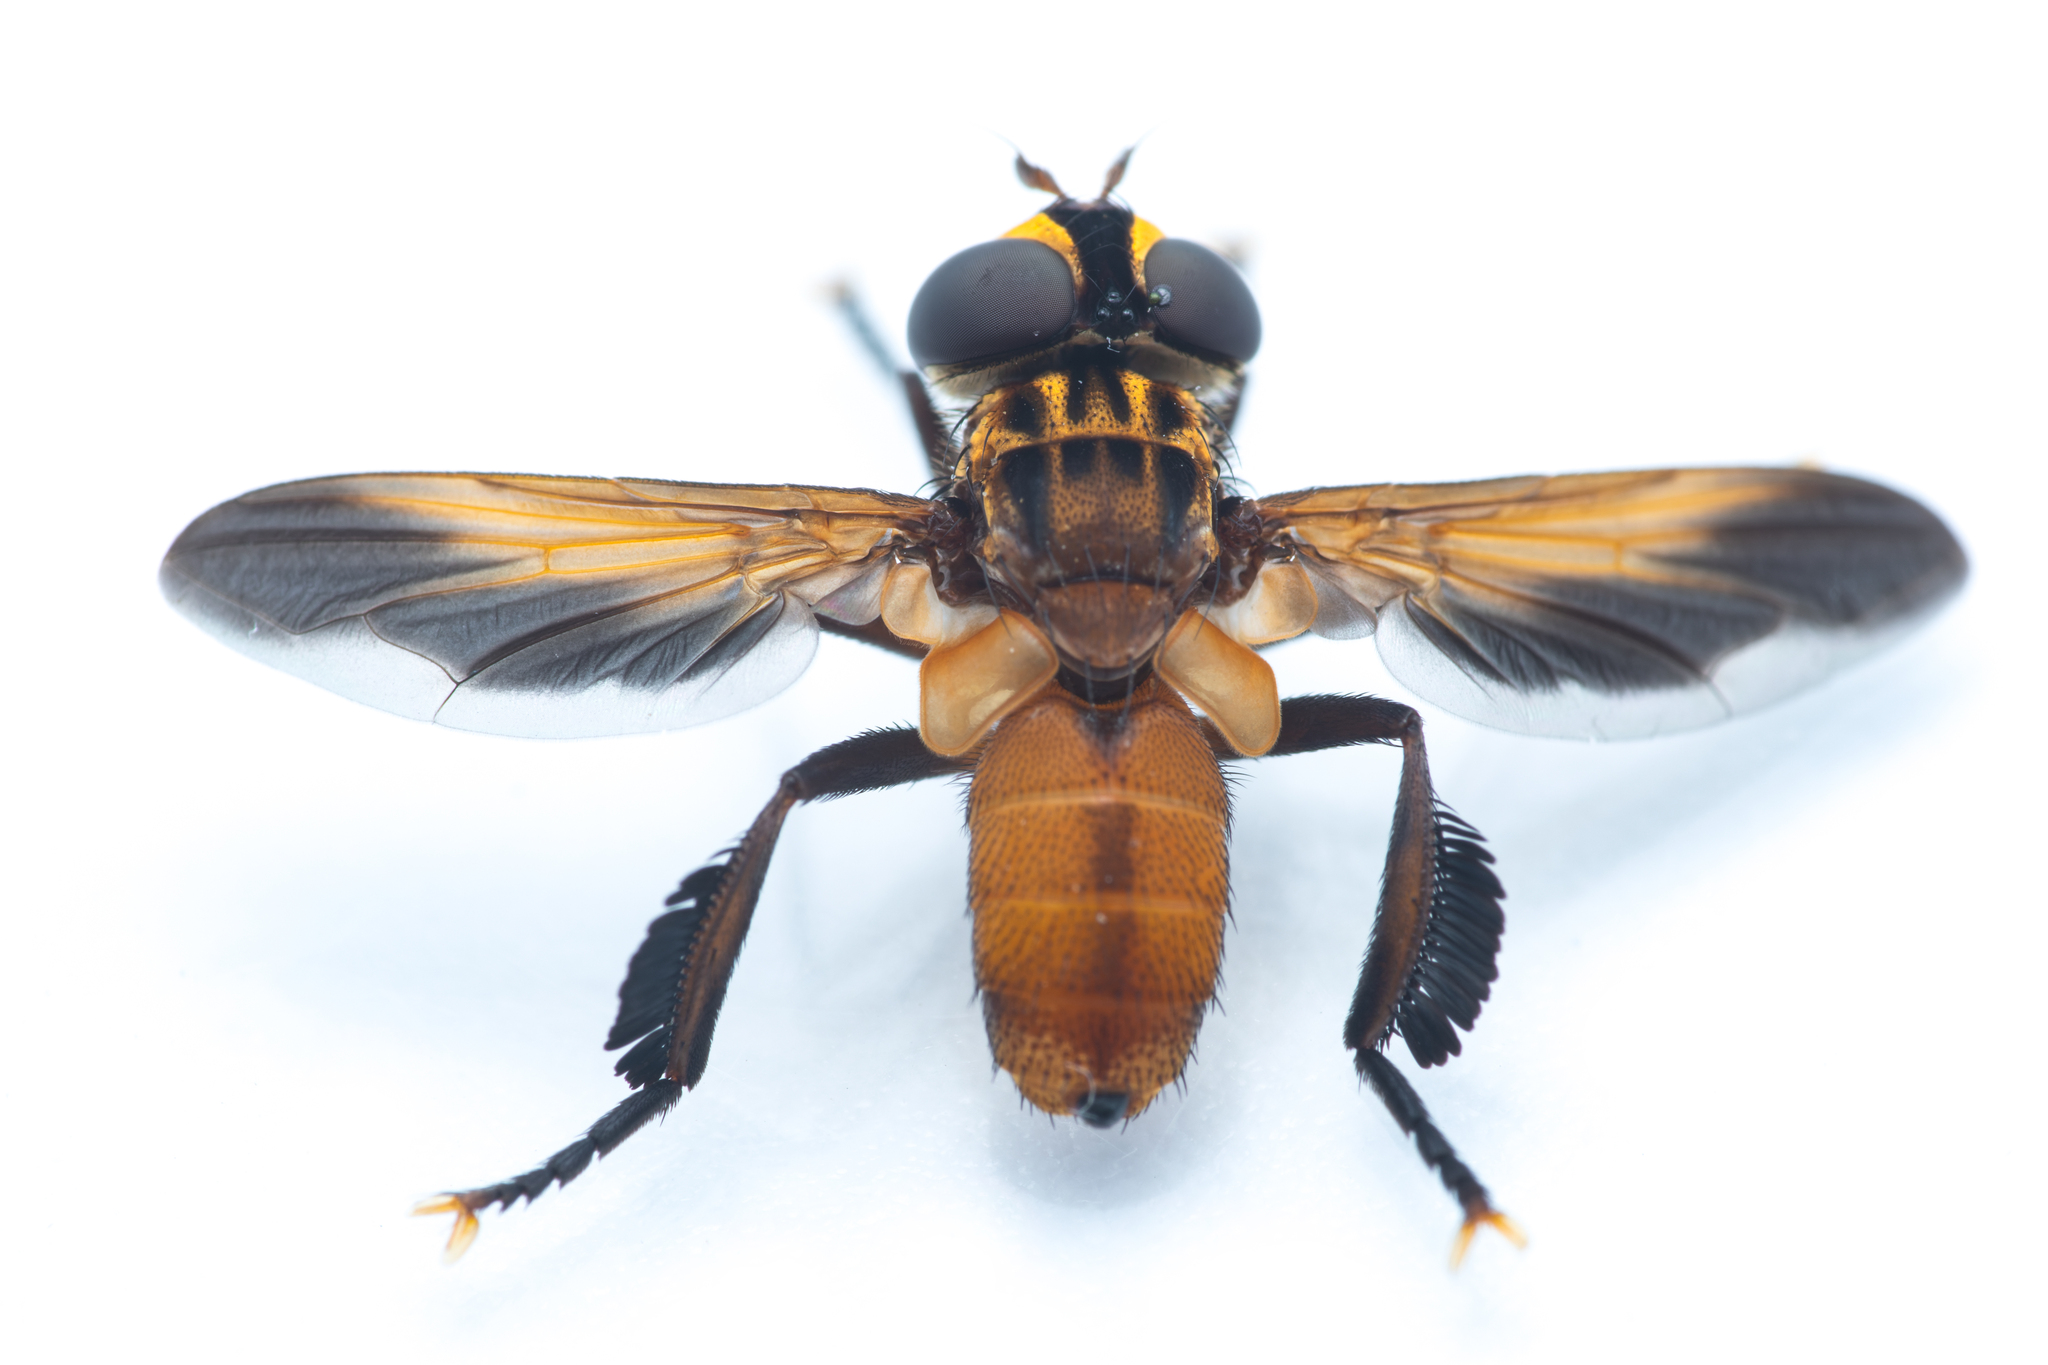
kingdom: Animalia
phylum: Arthropoda
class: Insecta
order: Diptera
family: Tachinidae
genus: Trichopoda
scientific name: Trichopoda pictipennis
